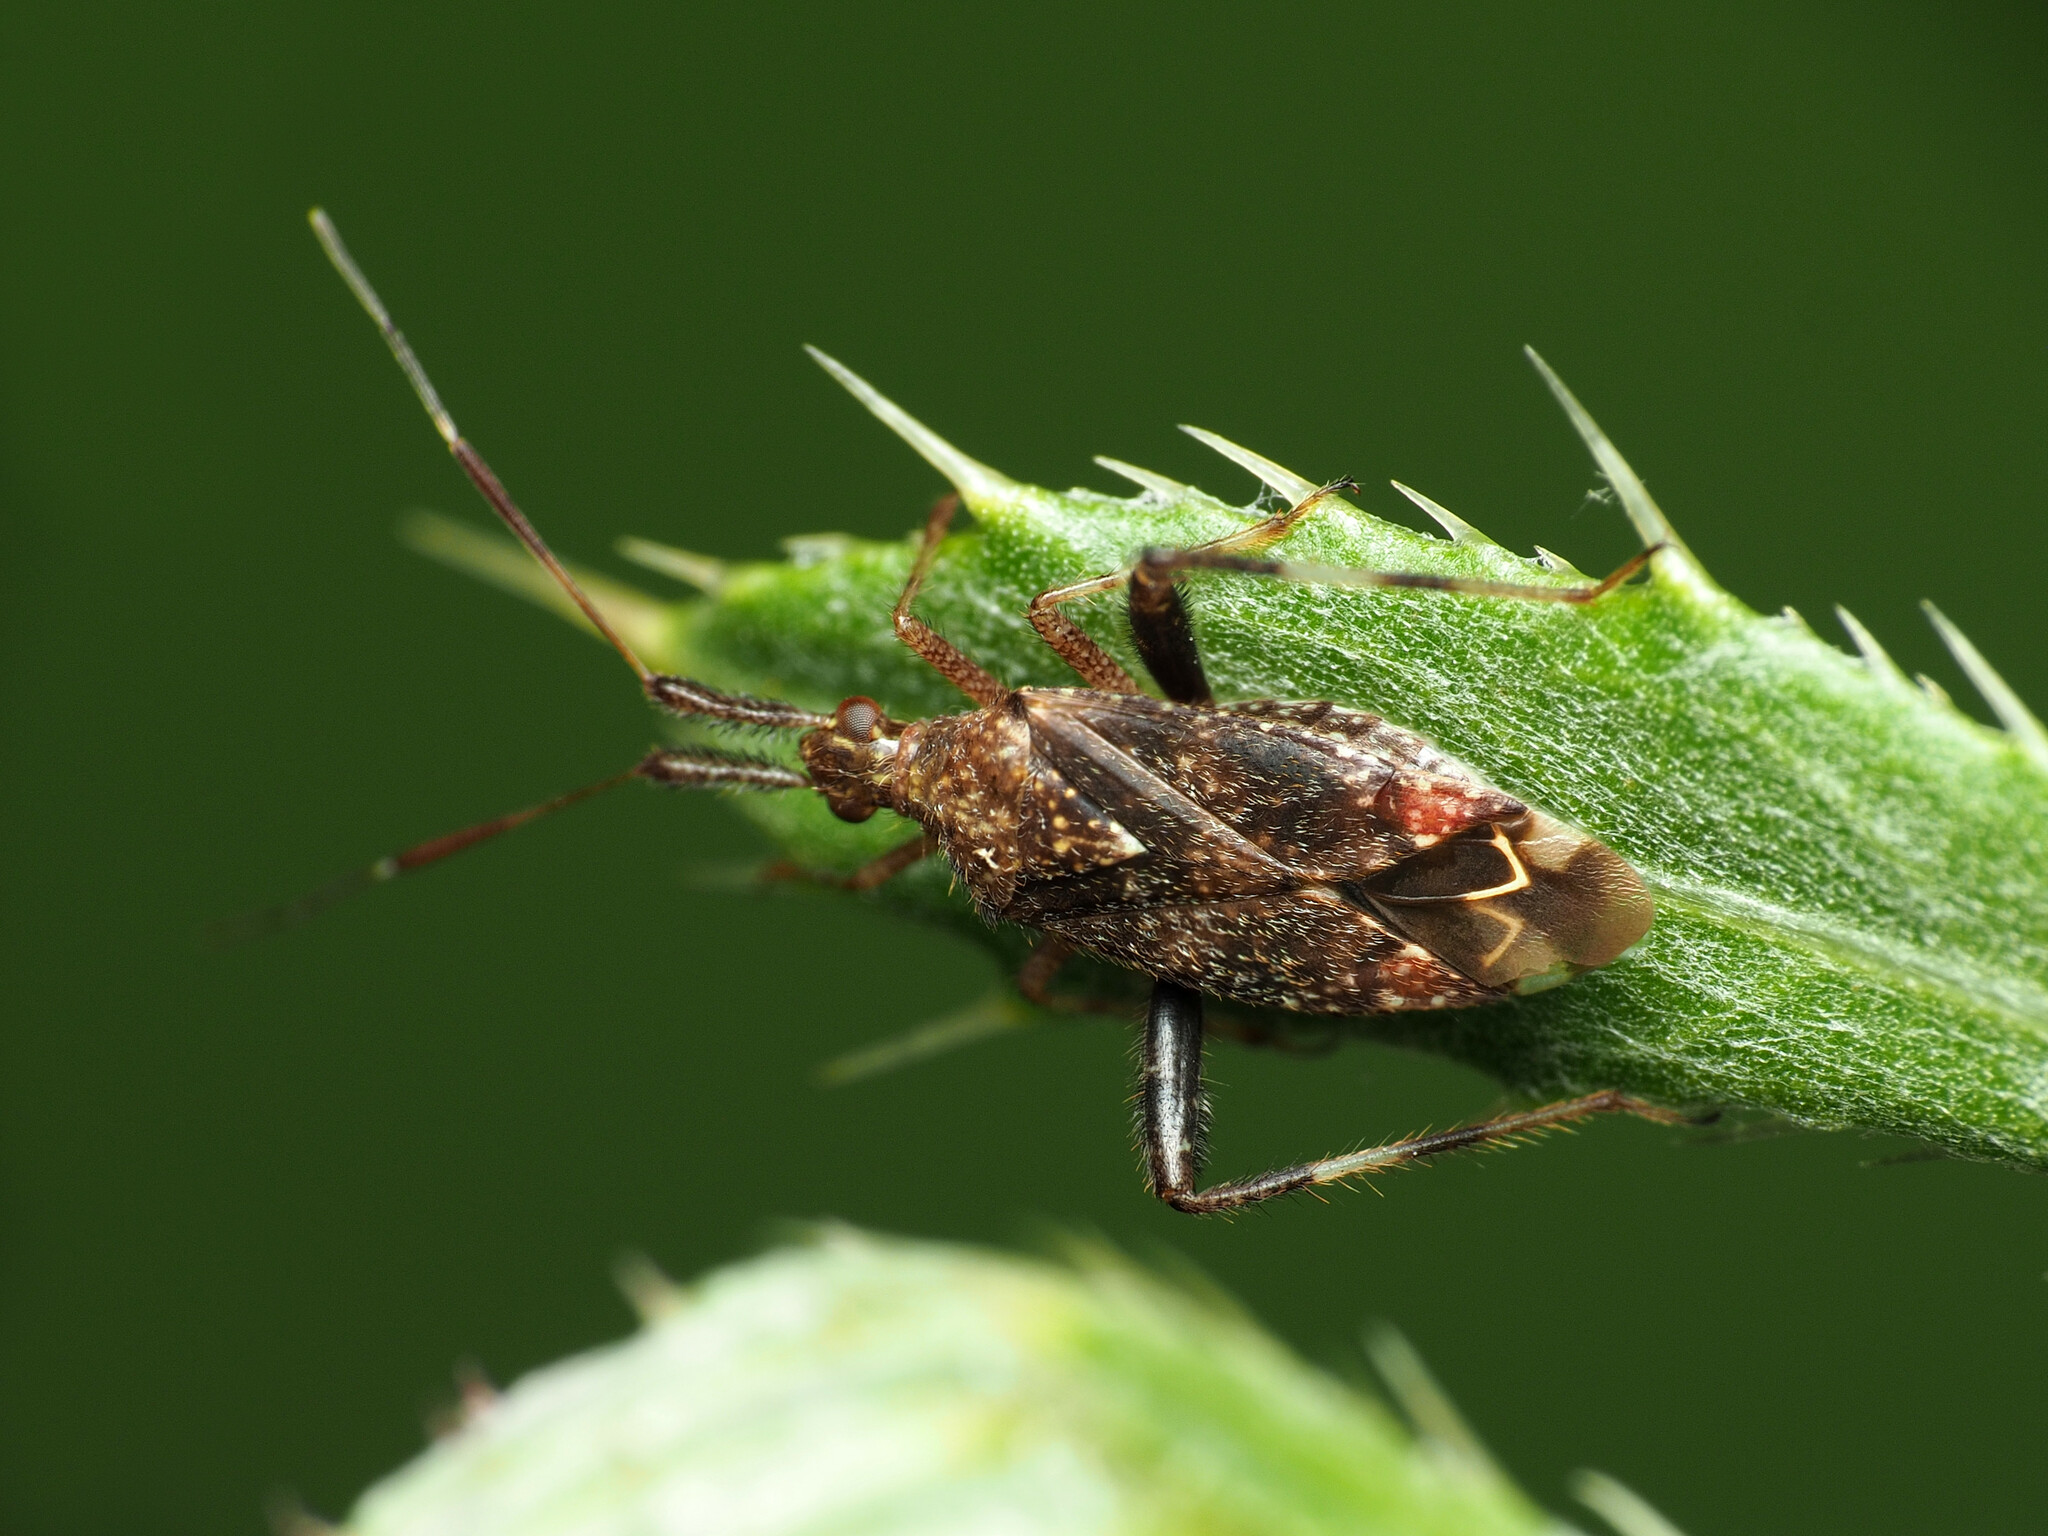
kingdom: Animalia
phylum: Arthropoda
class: Insecta
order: Hemiptera
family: Miridae
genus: Neurocolpus
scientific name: Neurocolpus
